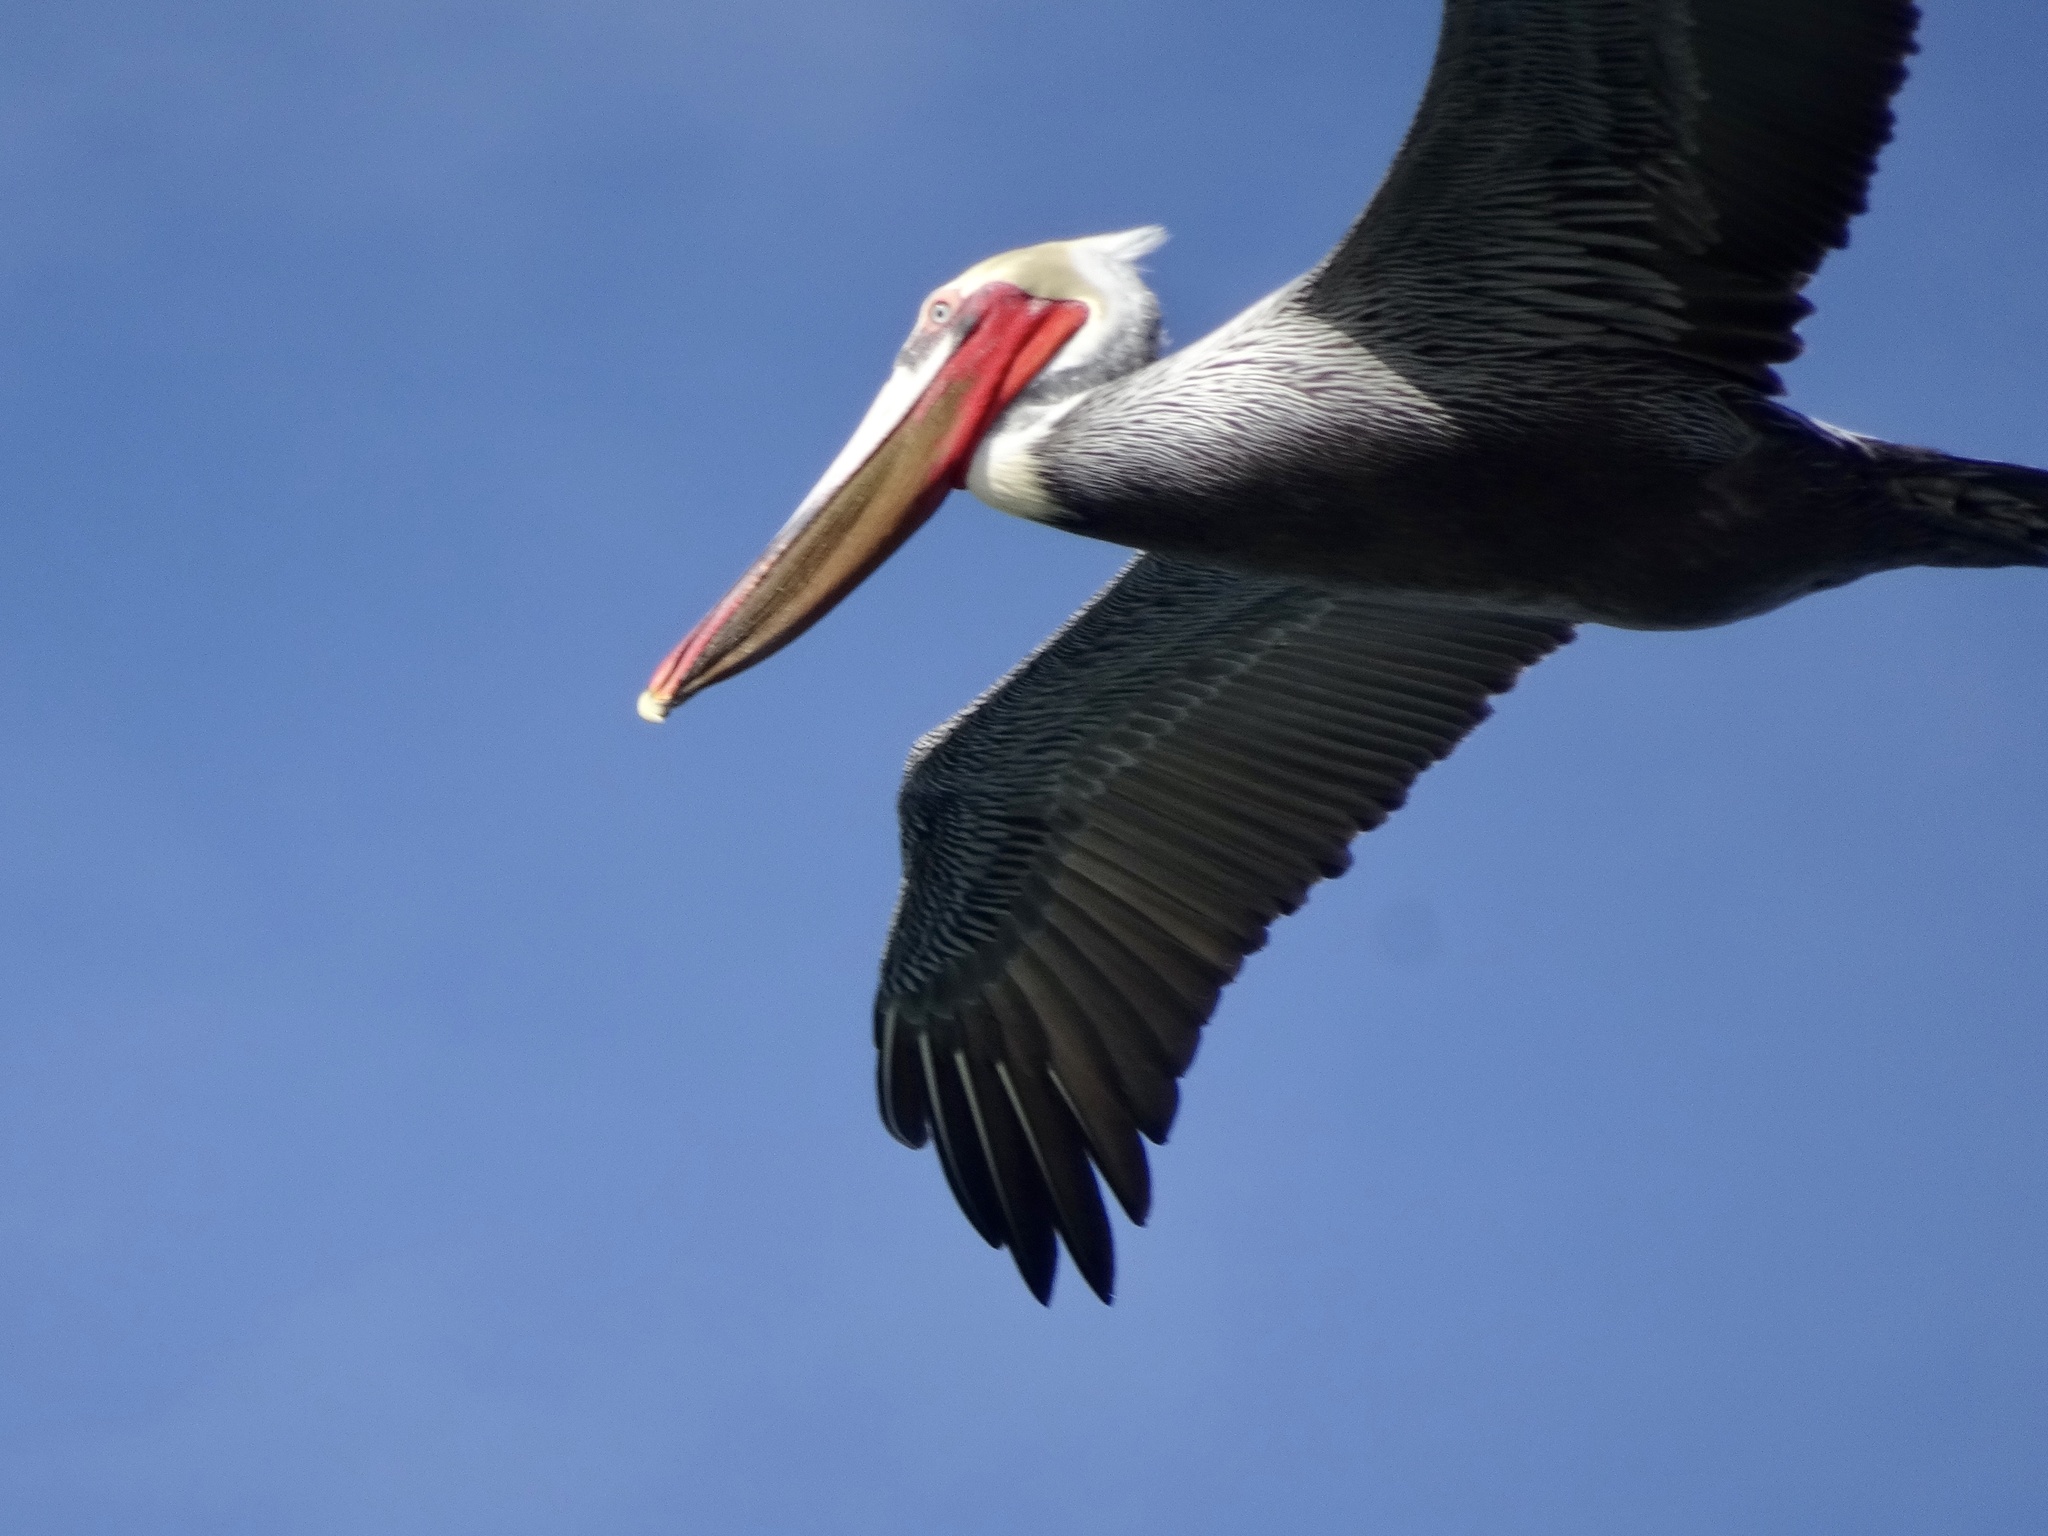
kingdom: Animalia
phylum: Chordata
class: Aves
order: Pelecaniformes
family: Pelecanidae
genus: Pelecanus
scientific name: Pelecanus occidentalis
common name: Brown pelican
